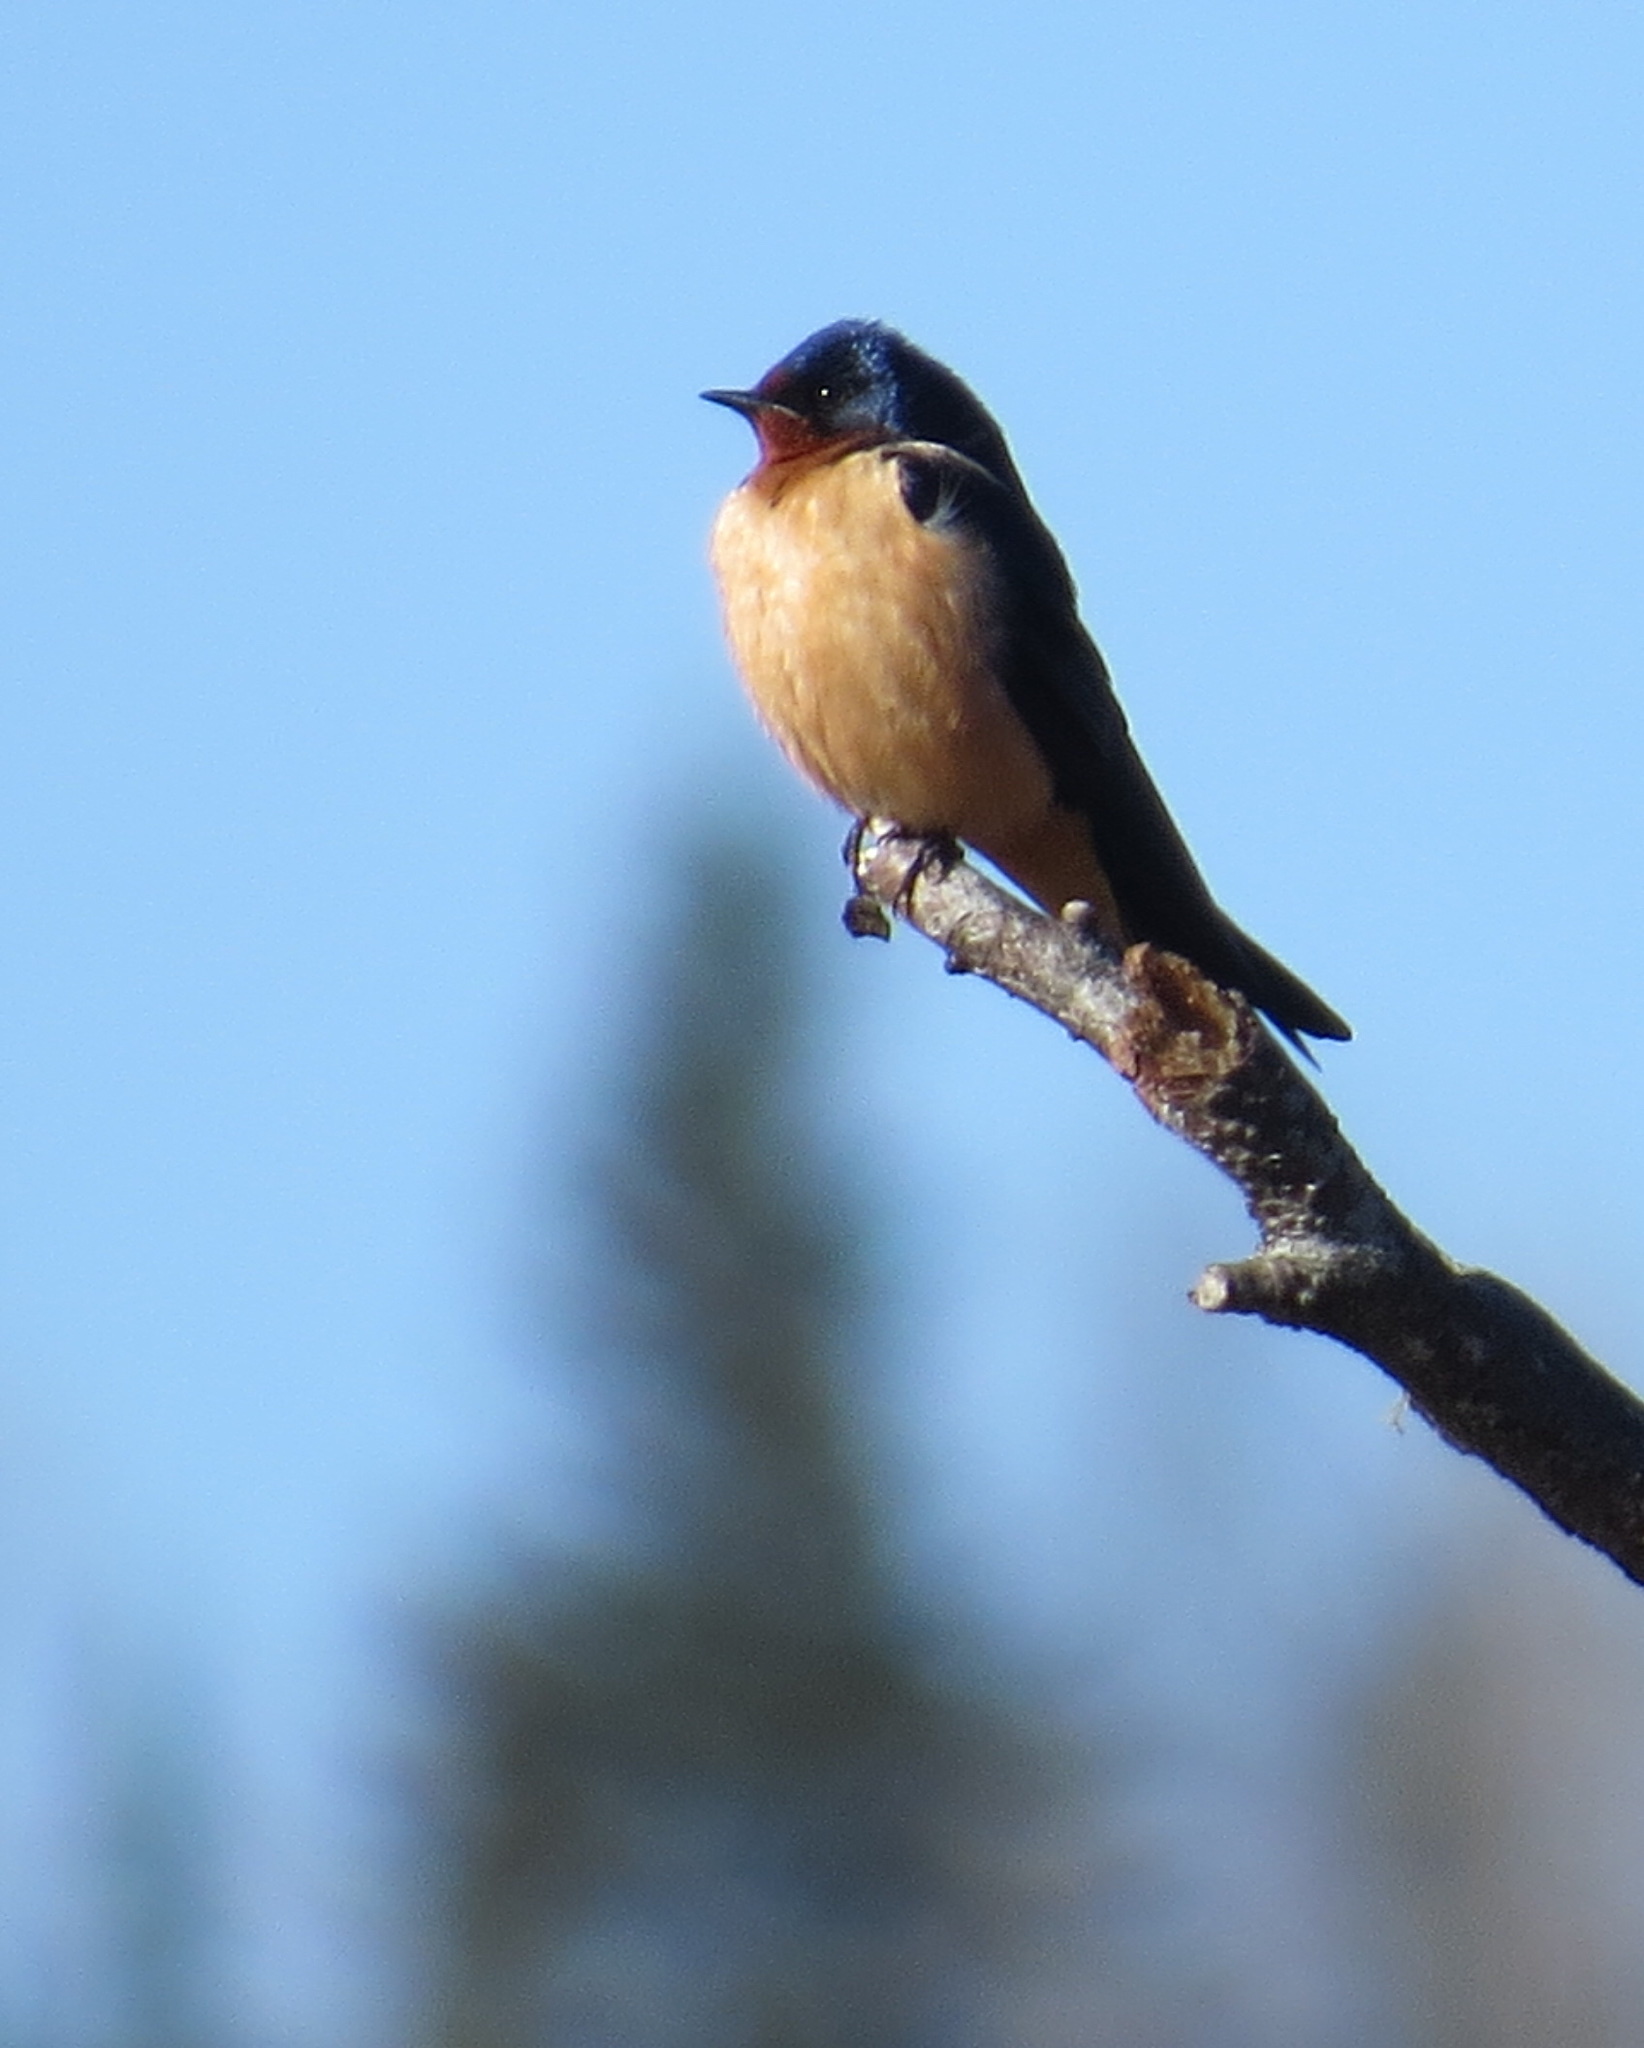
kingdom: Animalia
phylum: Chordata
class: Aves
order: Passeriformes
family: Hirundinidae
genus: Hirundo
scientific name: Hirundo rustica
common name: Barn swallow
